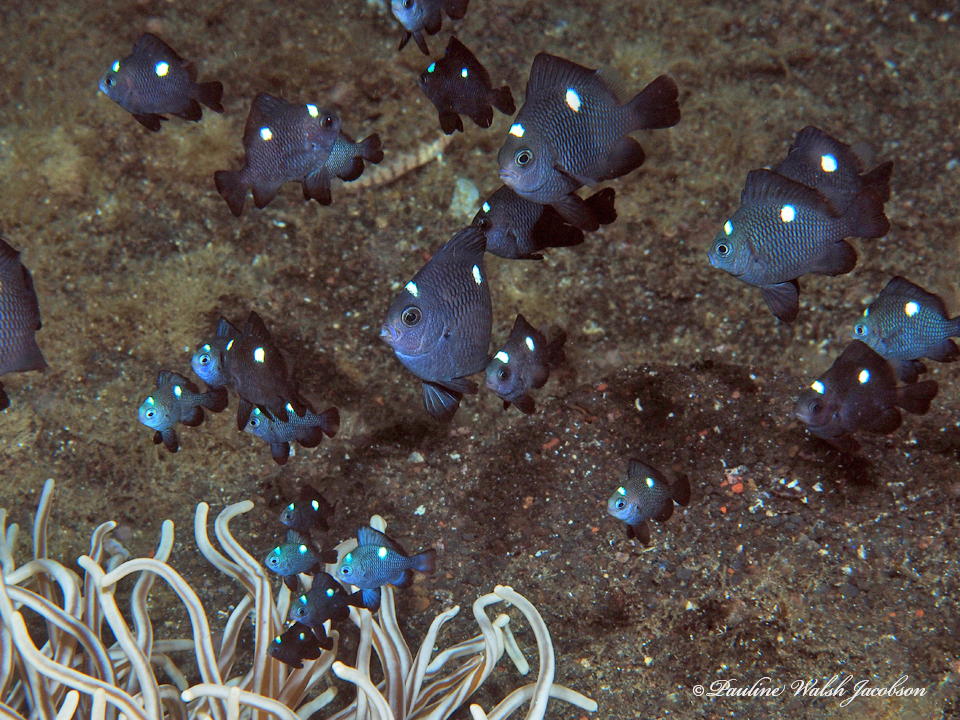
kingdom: Animalia
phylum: Chordata
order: Perciformes
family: Pomacentridae
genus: Dascyllus
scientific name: Dascyllus trimaculatus
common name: Threespot dascyllus
